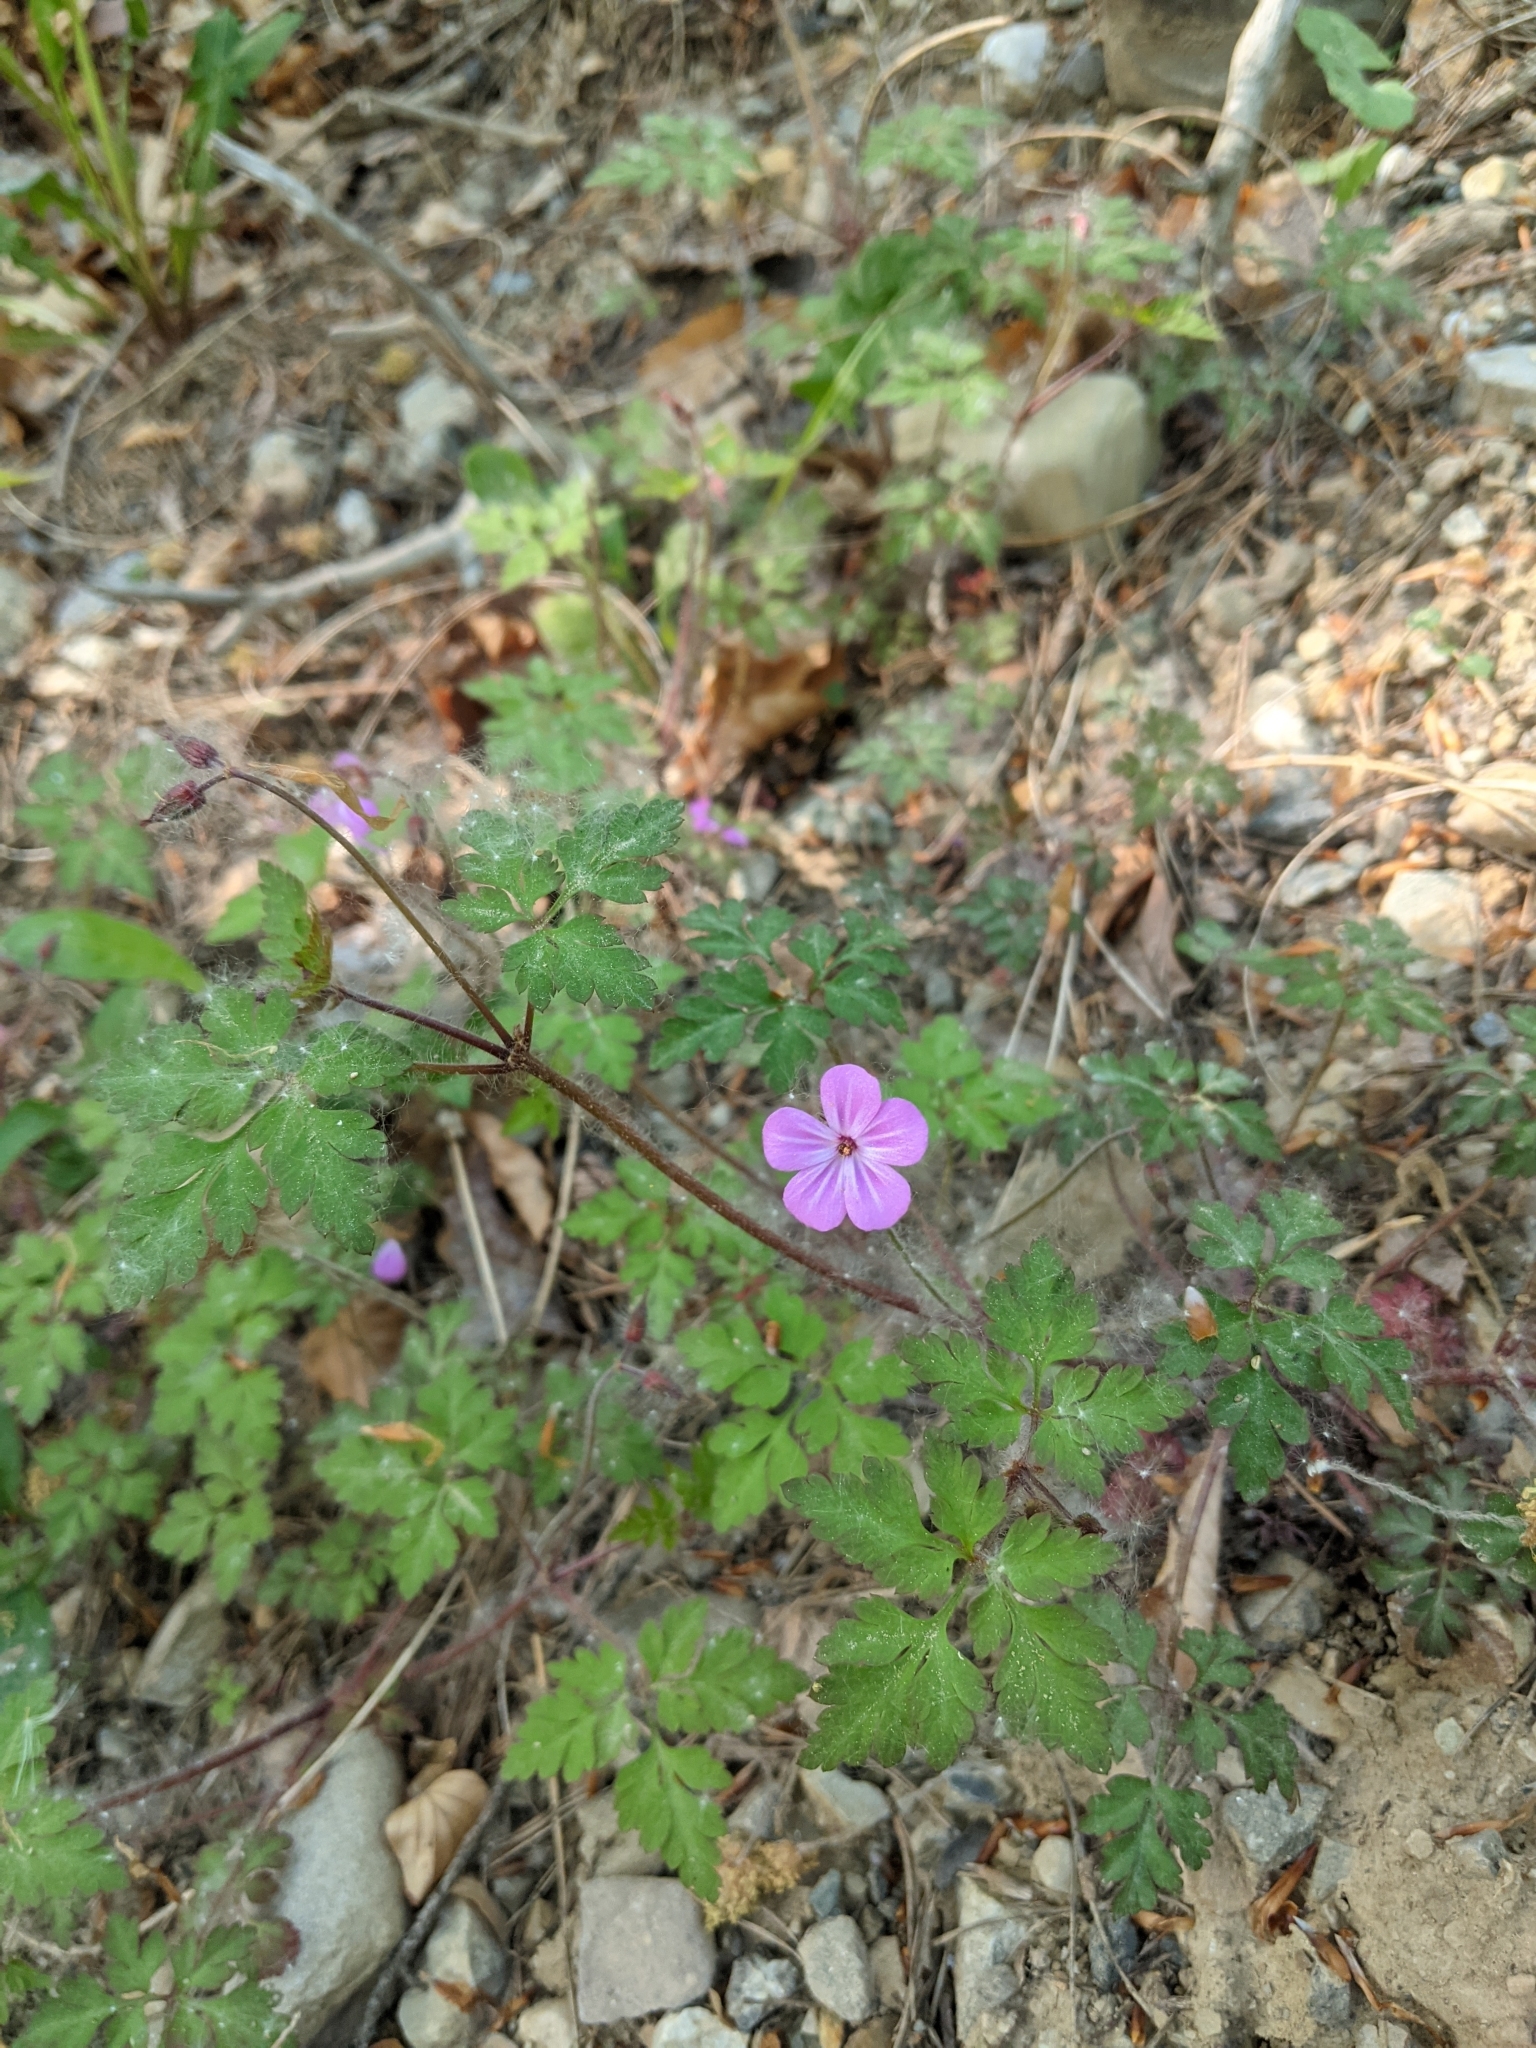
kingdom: Plantae
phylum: Tracheophyta
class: Magnoliopsida
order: Geraniales
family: Geraniaceae
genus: Geranium
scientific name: Geranium robertianum
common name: Herb-robert
